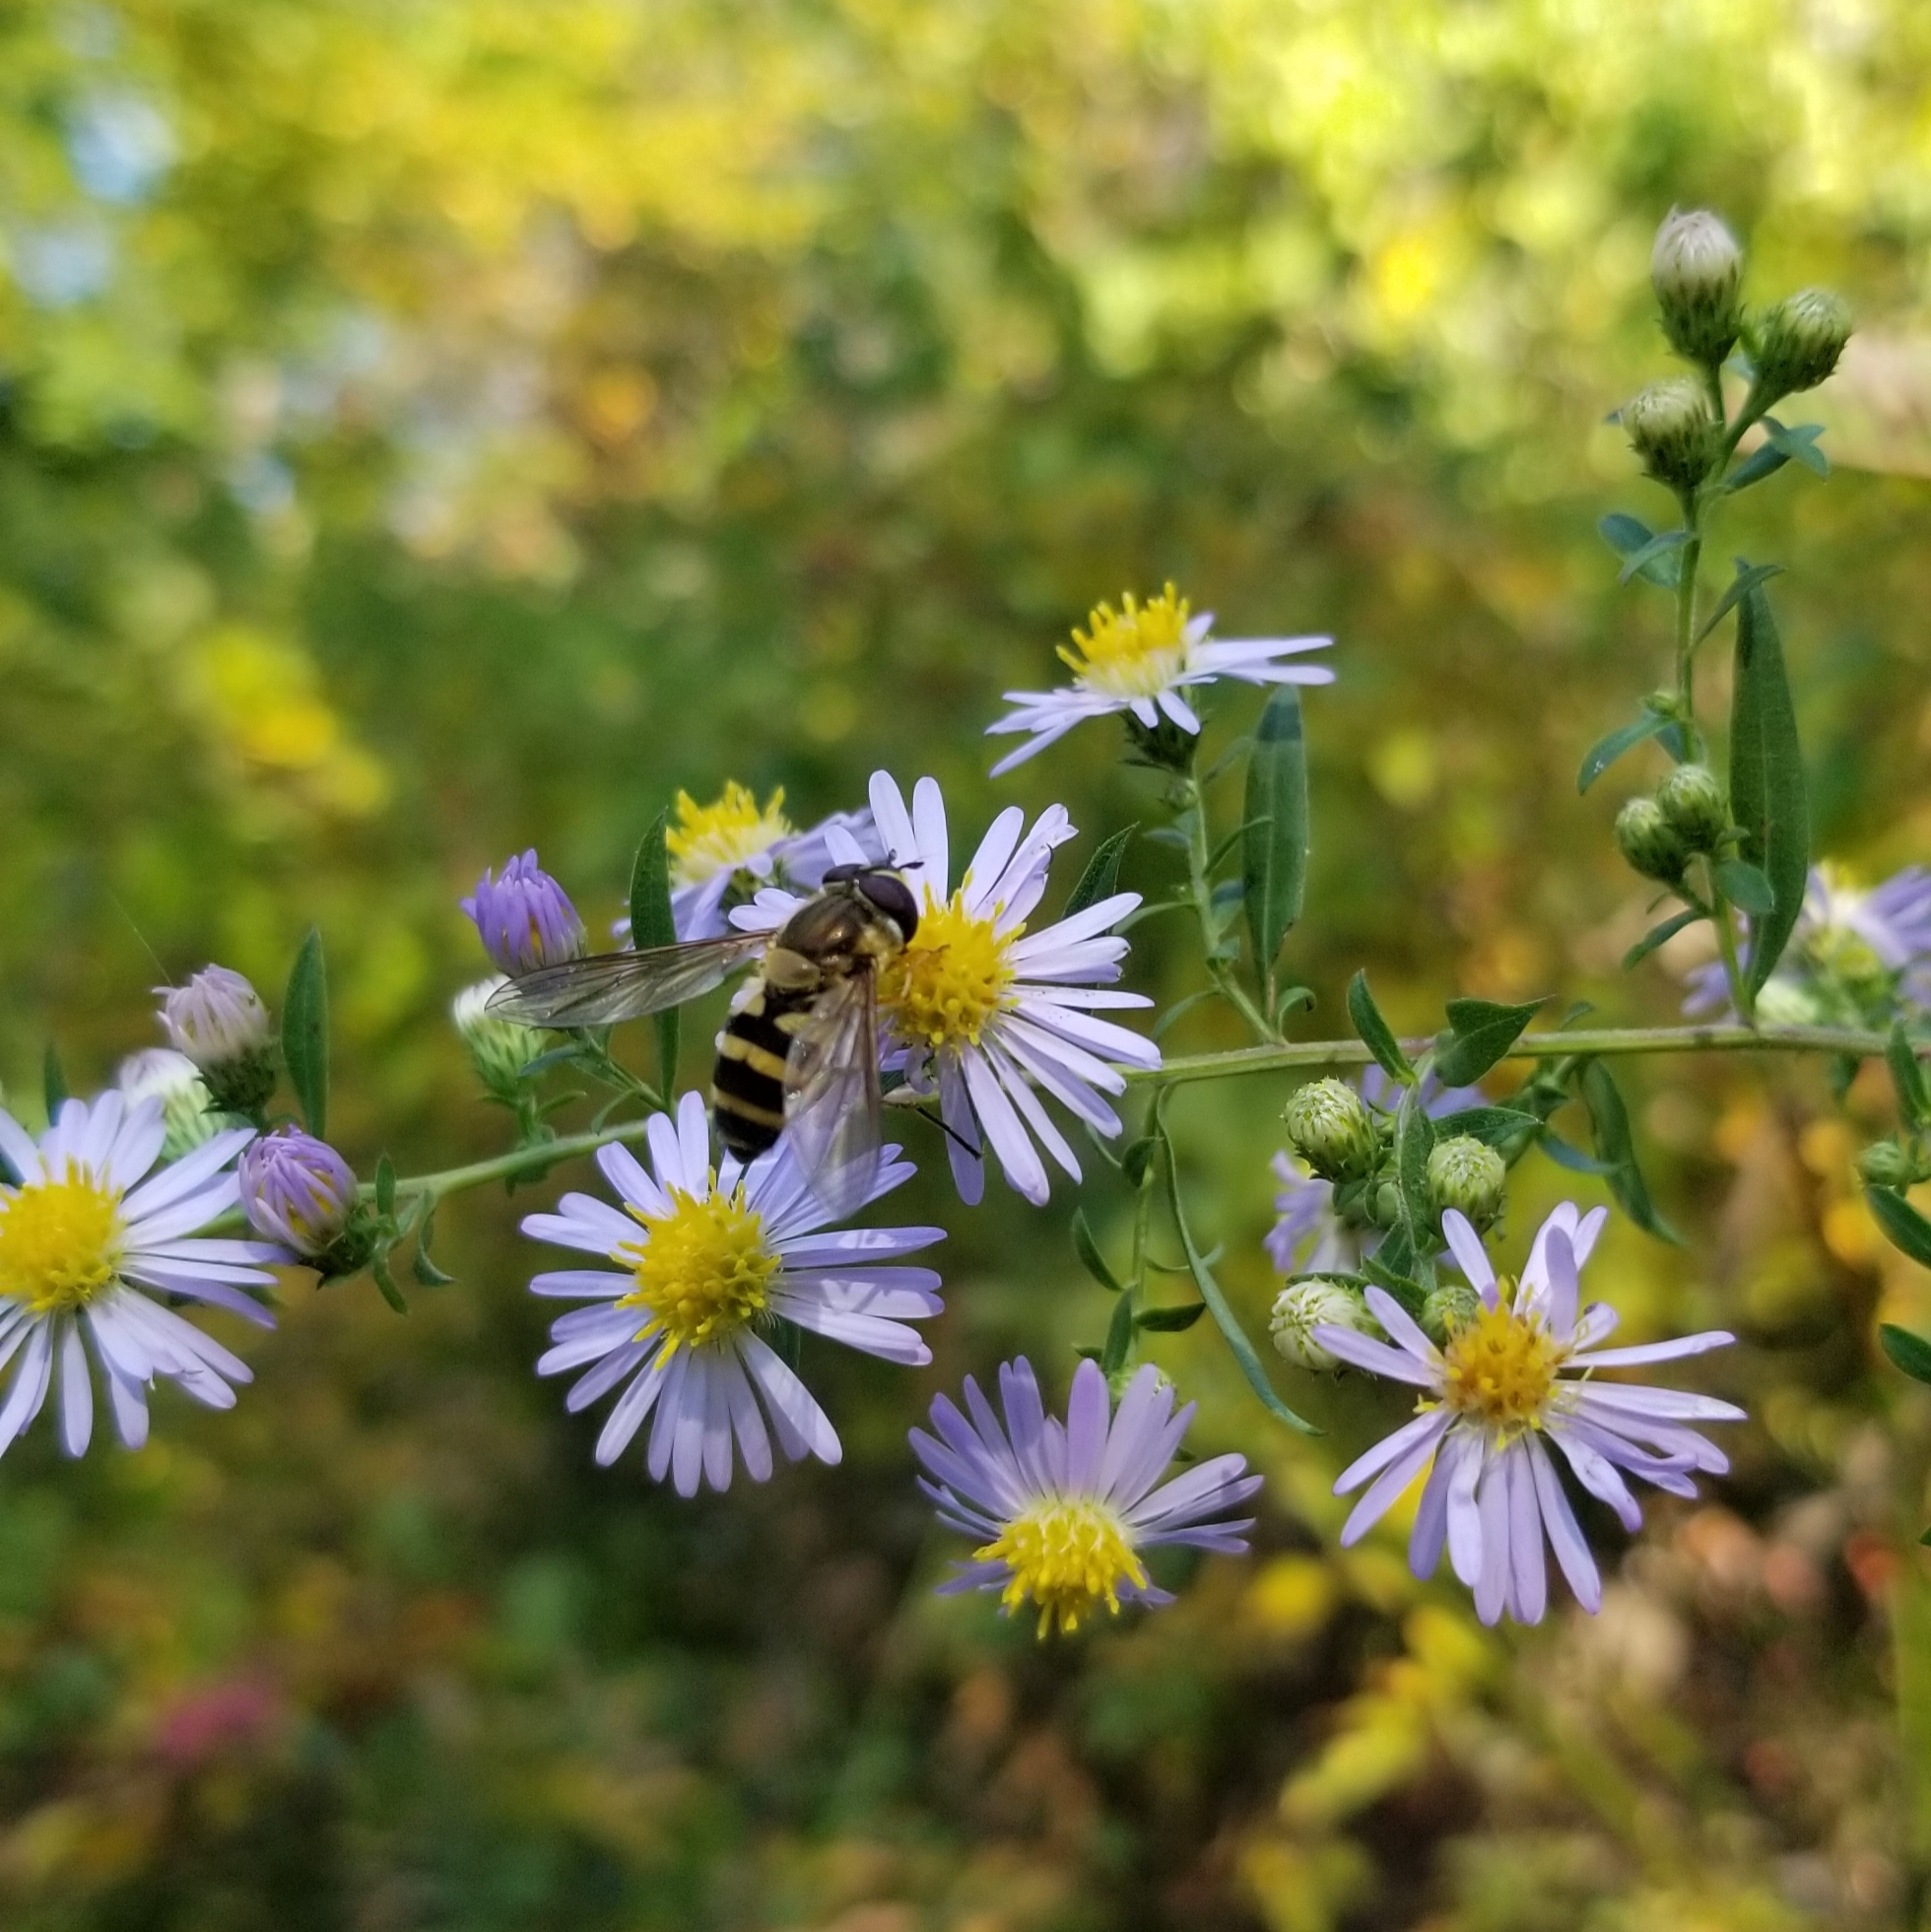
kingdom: Animalia
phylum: Arthropoda
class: Insecta
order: Diptera
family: Syrphidae
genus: Epistrophe
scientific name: Epistrophe grossulariae
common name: Black-horned smoothtail
